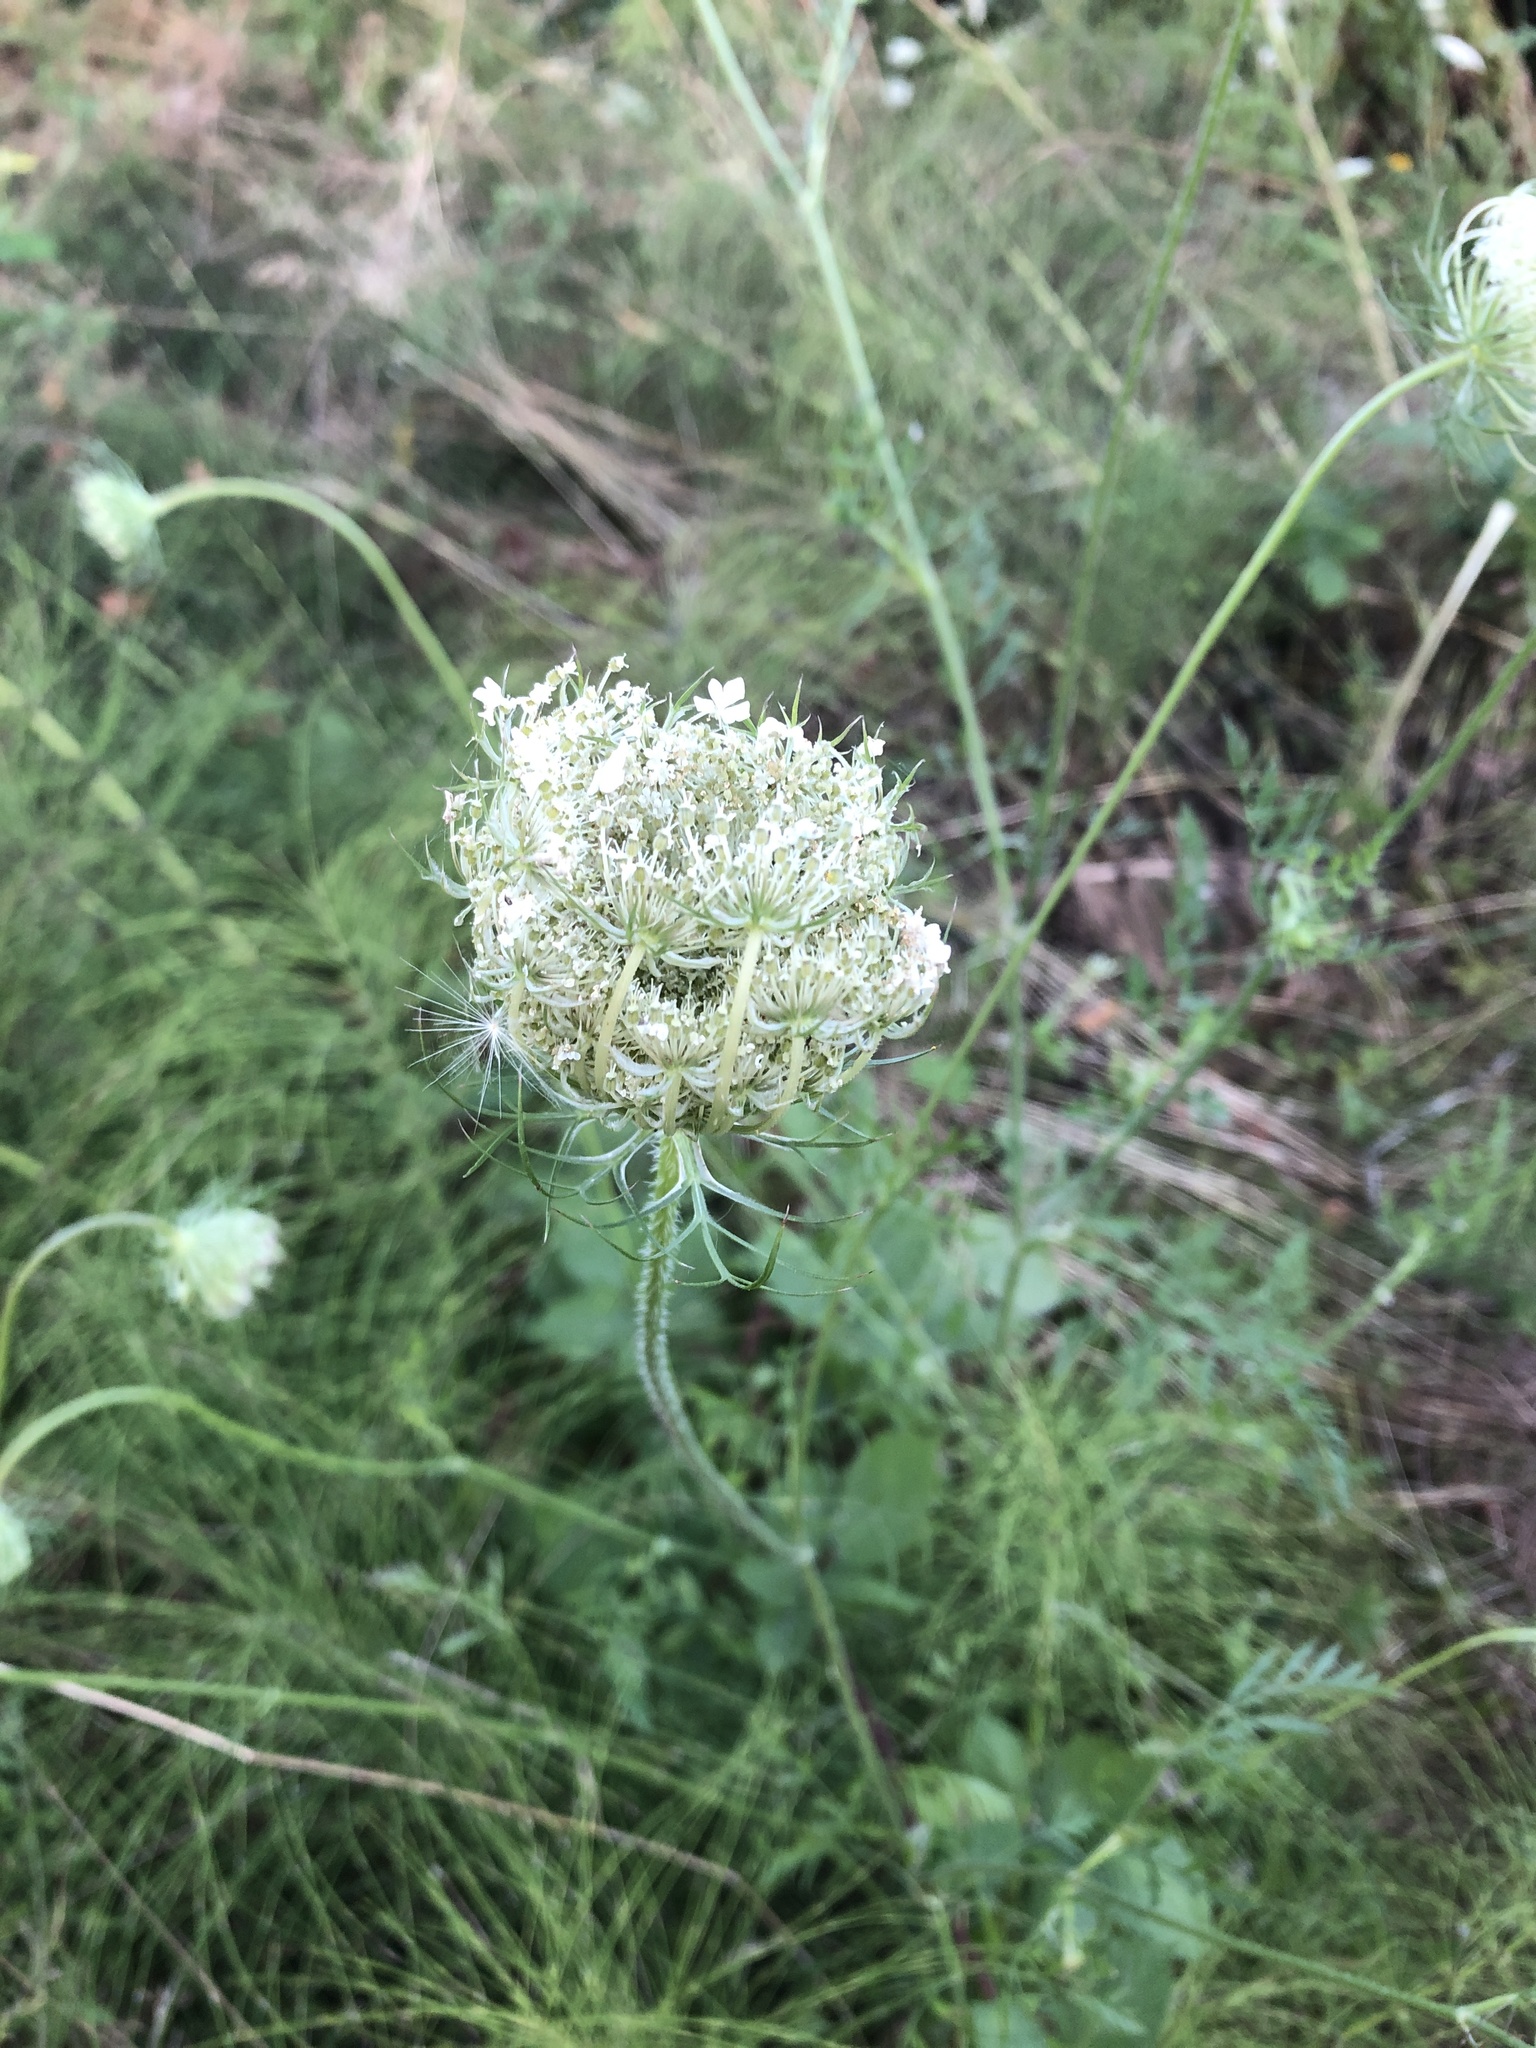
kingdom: Plantae
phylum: Tracheophyta
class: Magnoliopsida
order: Apiales
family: Apiaceae
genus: Daucus
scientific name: Daucus carota
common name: Wild carrot
